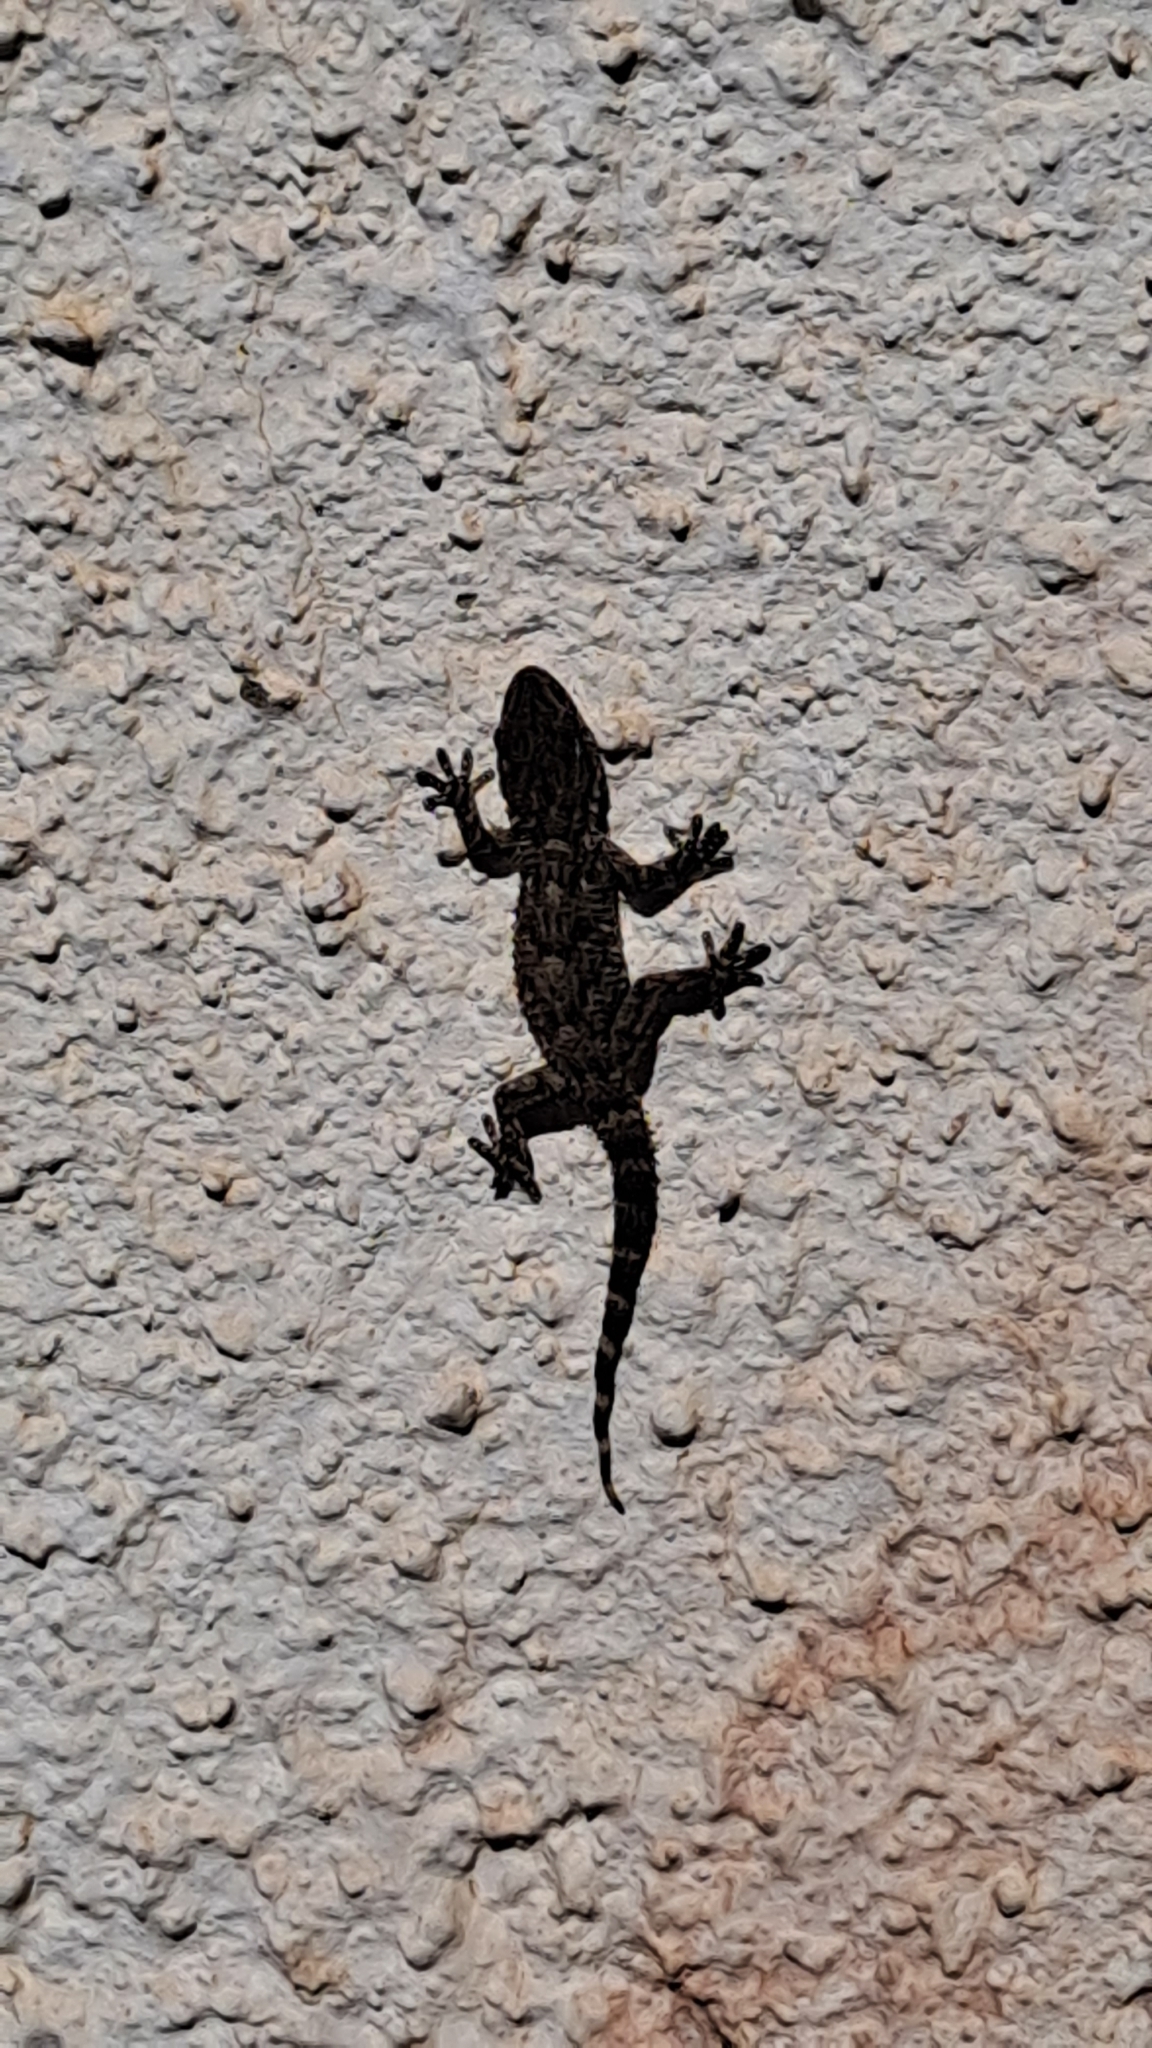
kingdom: Animalia
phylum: Chordata
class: Squamata
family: Phyllodactylidae
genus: Tarentola
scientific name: Tarentola mauritanica
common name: Moorish gecko
